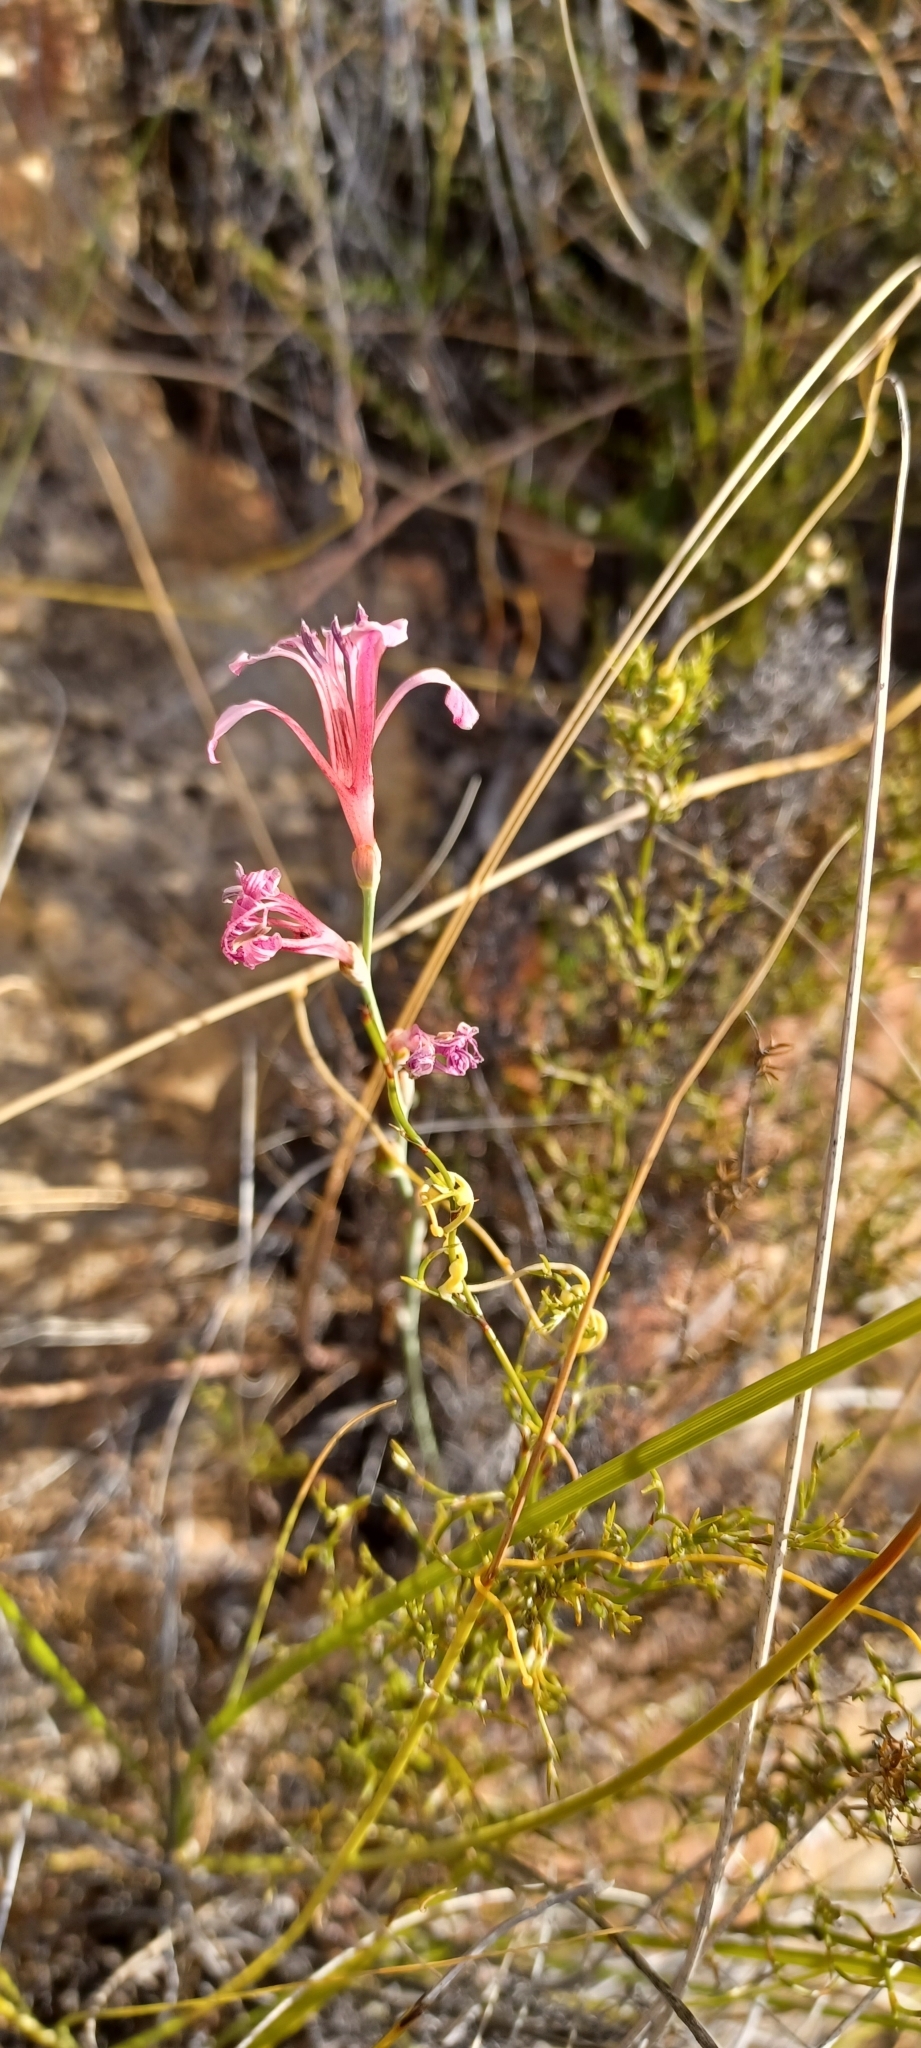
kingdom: Plantae
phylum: Tracheophyta
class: Liliopsida
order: Asparagales
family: Iridaceae
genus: Tritoniopsis
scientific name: Tritoniopsis ramosa
